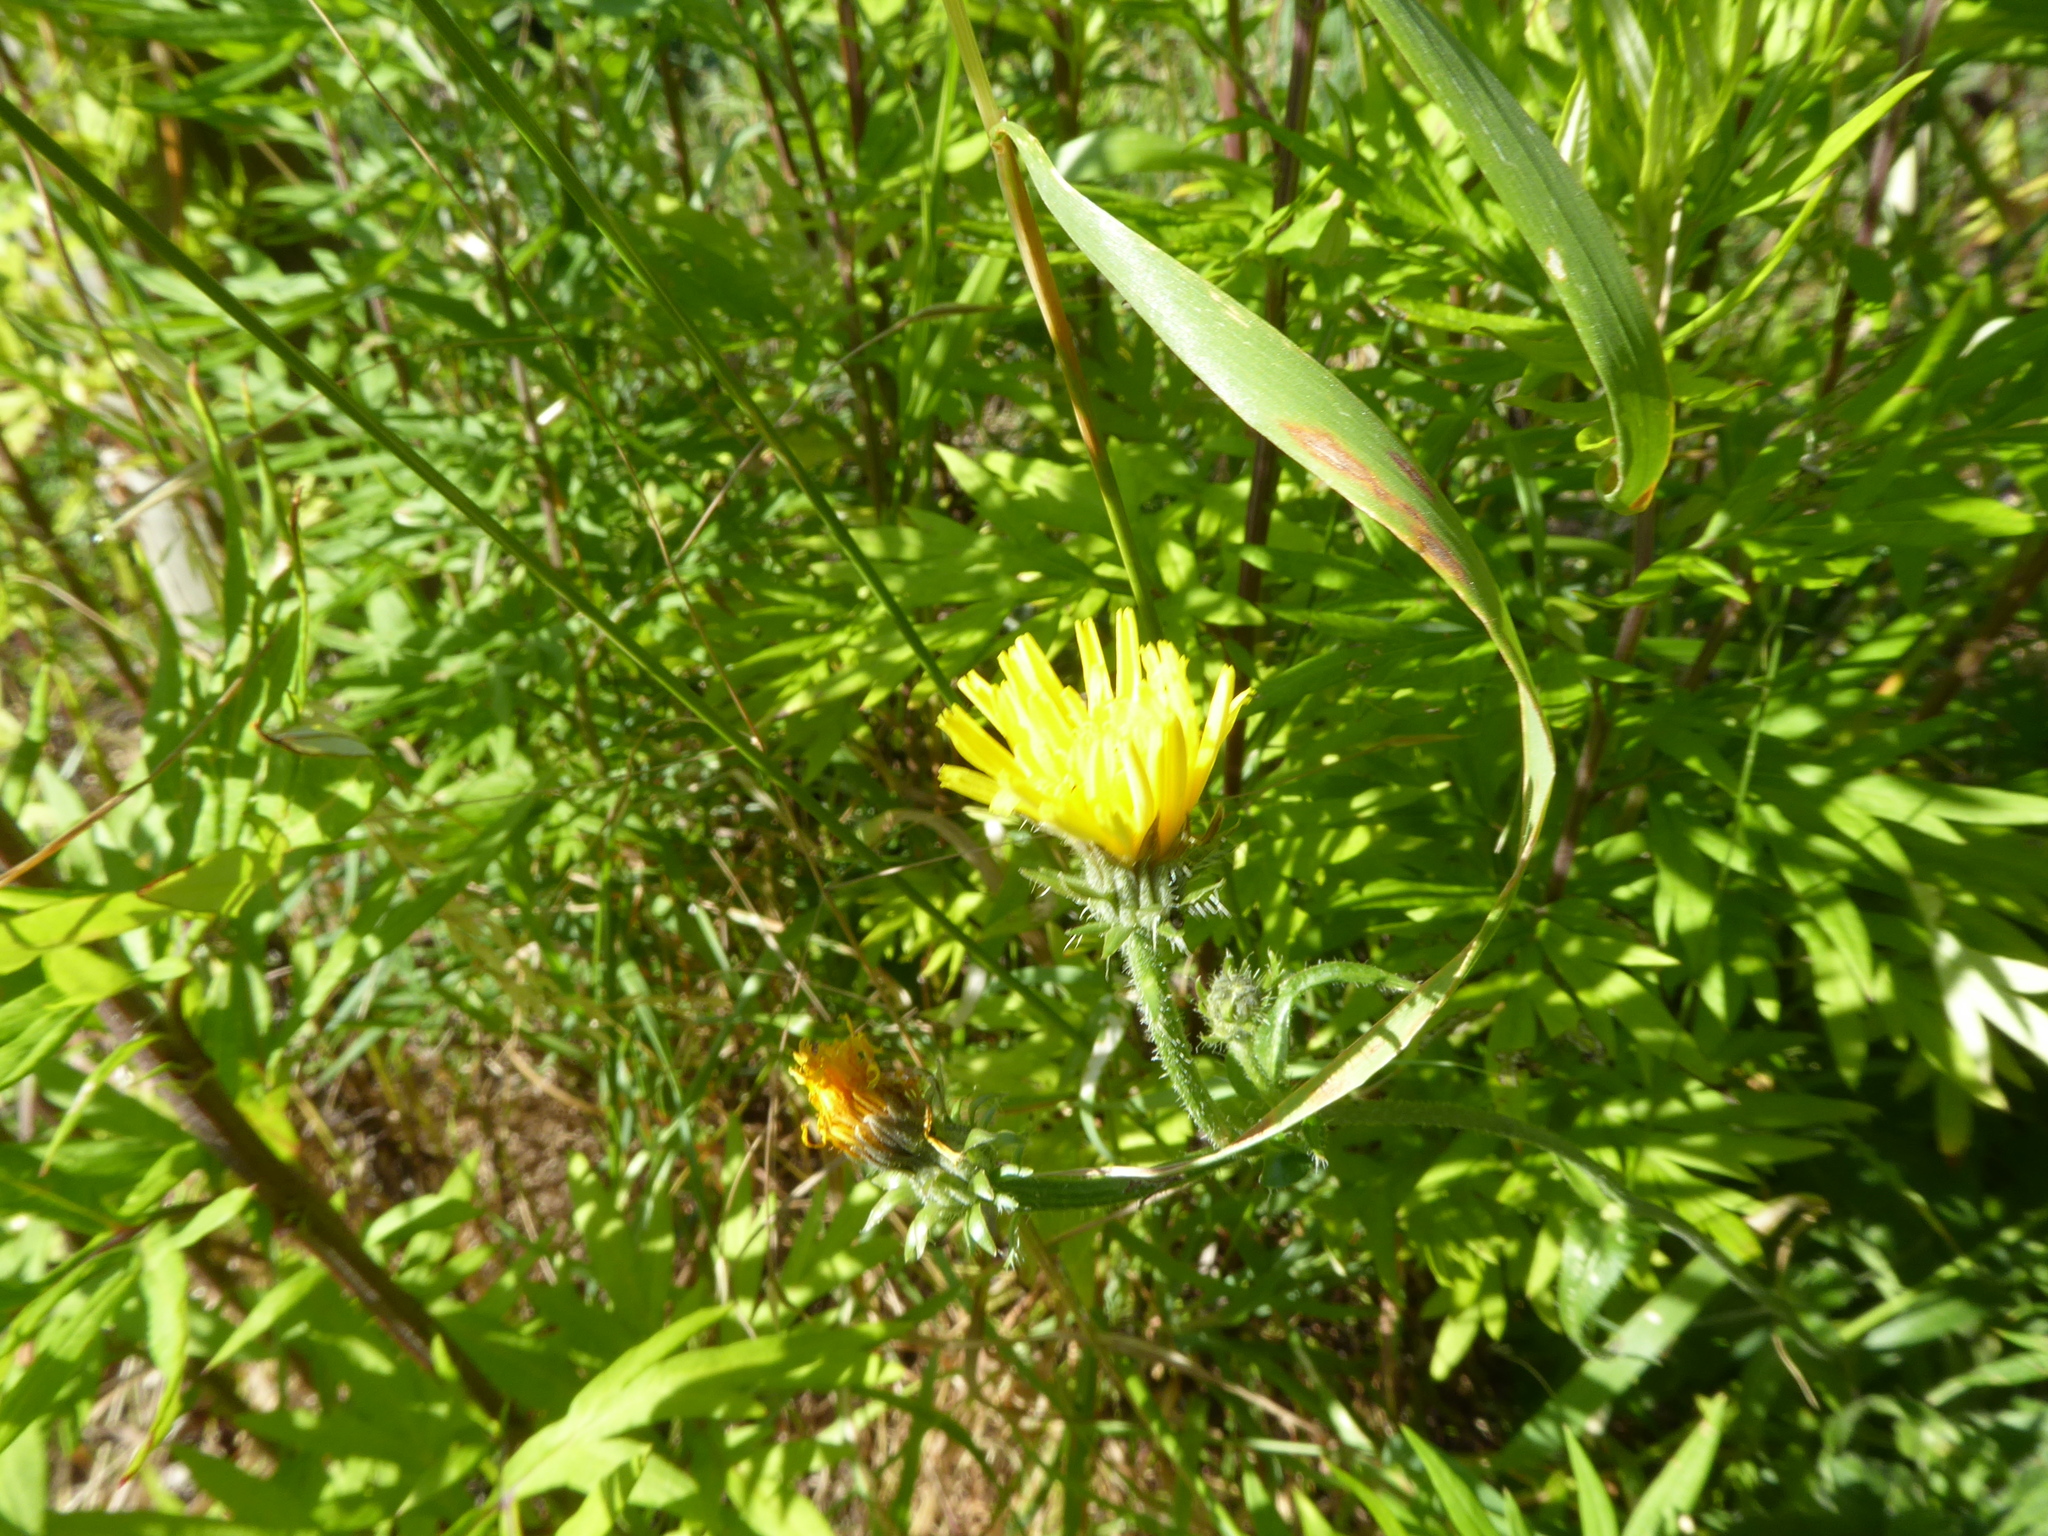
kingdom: Plantae
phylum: Tracheophyta
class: Magnoliopsida
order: Asterales
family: Asteraceae
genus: Picris
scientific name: Picris hieracioides
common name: Hawkweed oxtongue
